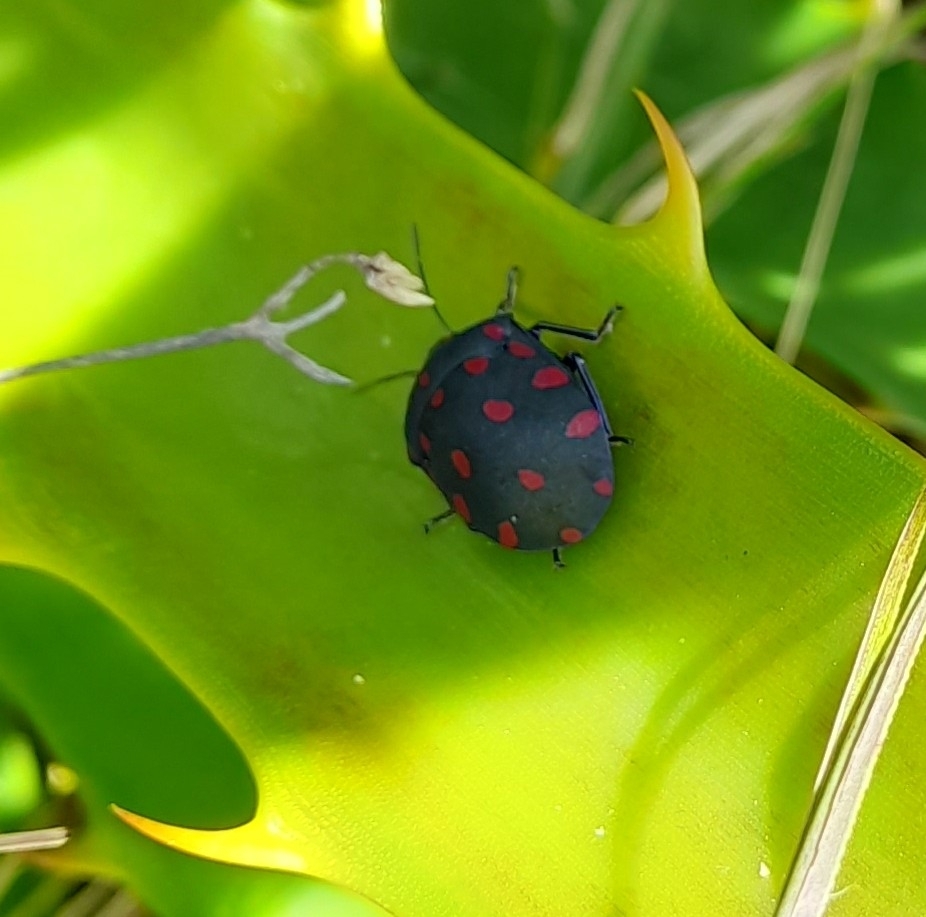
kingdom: Animalia
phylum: Arthropoda
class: Insecta
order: Hemiptera
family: Scutelleridae
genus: Pachycoris
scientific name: Pachycoris torridus
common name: Torrid jewel bug
